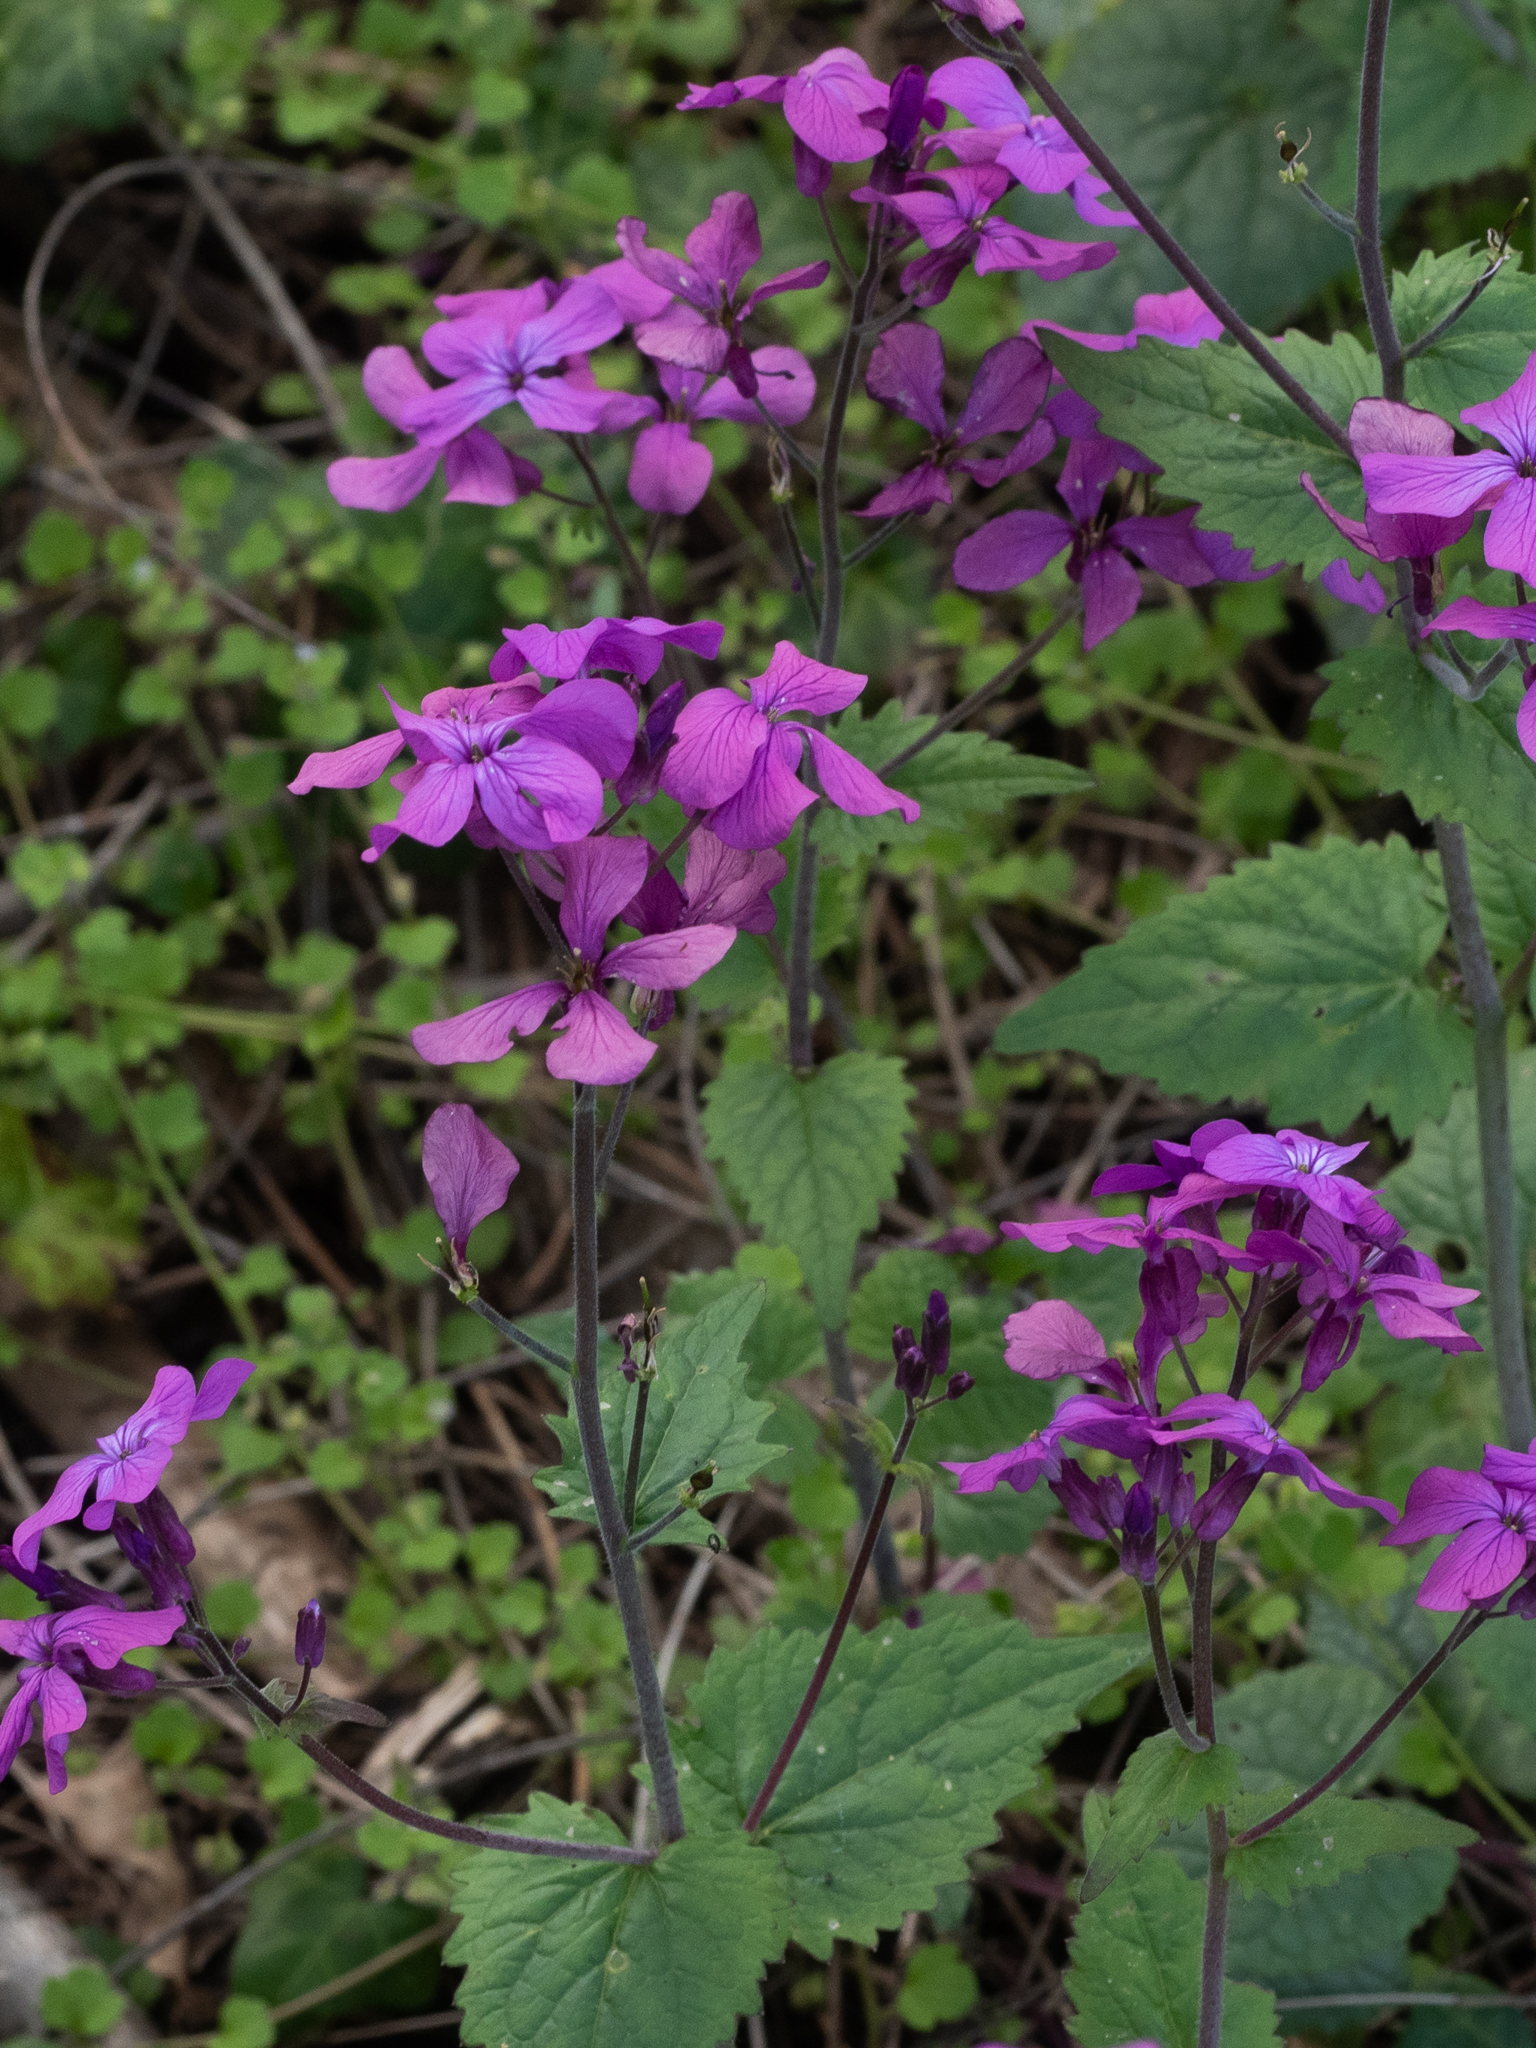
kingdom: Plantae
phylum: Tracheophyta
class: Magnoliopsida
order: Brassicales
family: Brassicaceae
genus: Lunaria
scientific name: Lunaria annua
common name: Honesty
